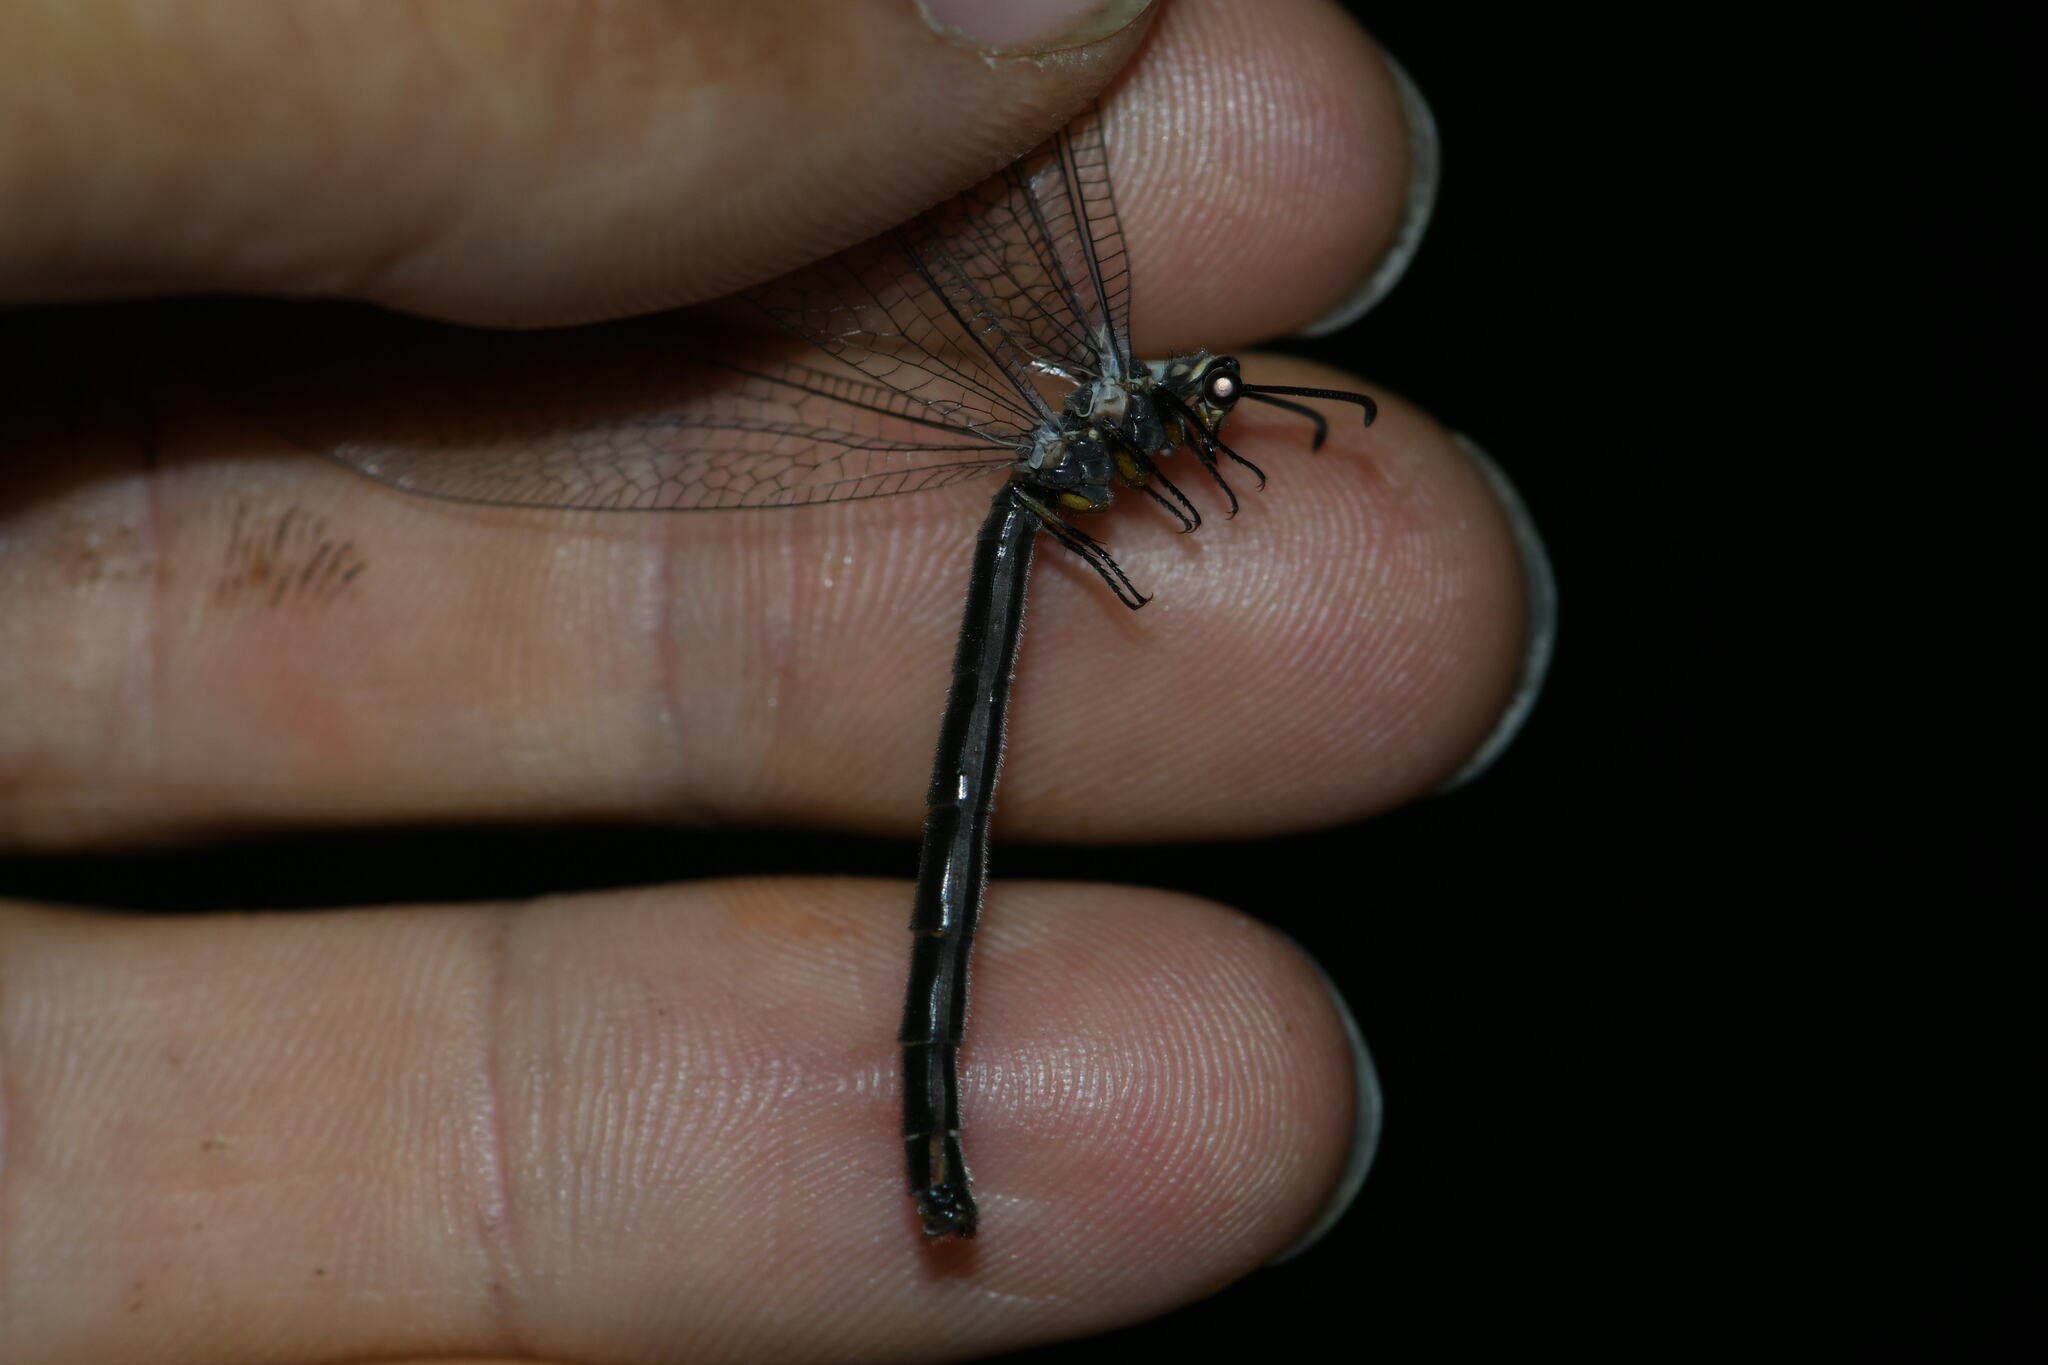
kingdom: Animalia
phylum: Arthropoda
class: Insecta
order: Neuroptera
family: Myrmeleontidae
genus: Myrmeleon
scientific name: Myrmeleon formicarius
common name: Ant-lion
